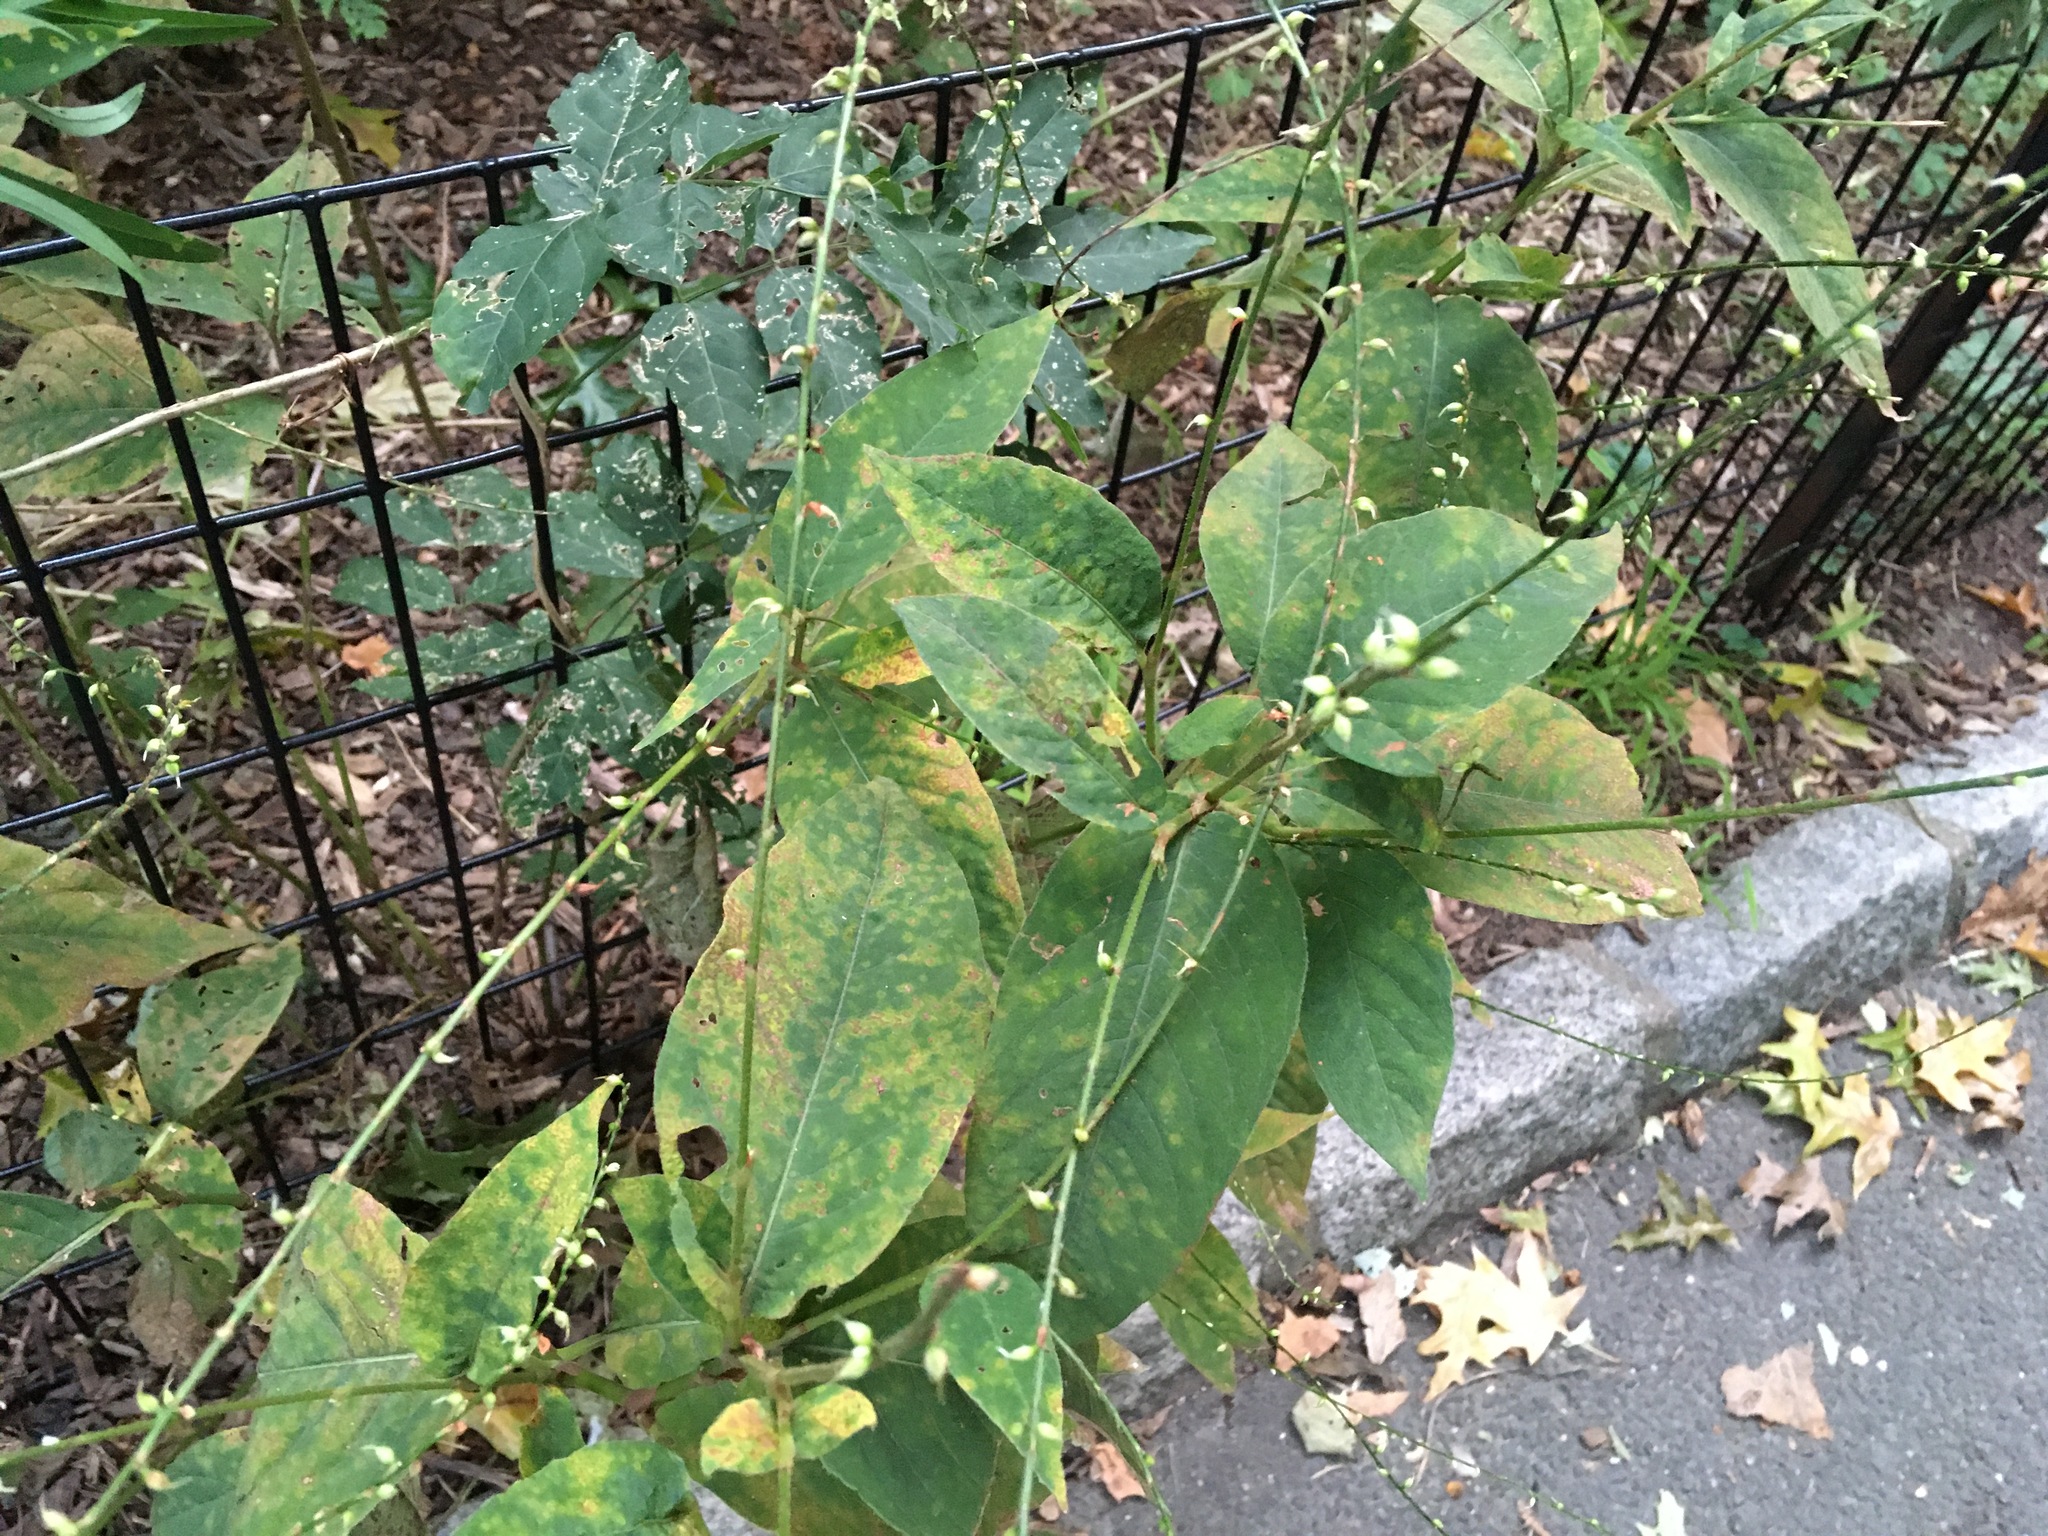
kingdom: Plantae
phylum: Tracheophyta
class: Magnoliopsida
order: Caryophyllales
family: Polygonaceae
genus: Persicaria
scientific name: Persicaria virginiana
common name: Jumpseed
